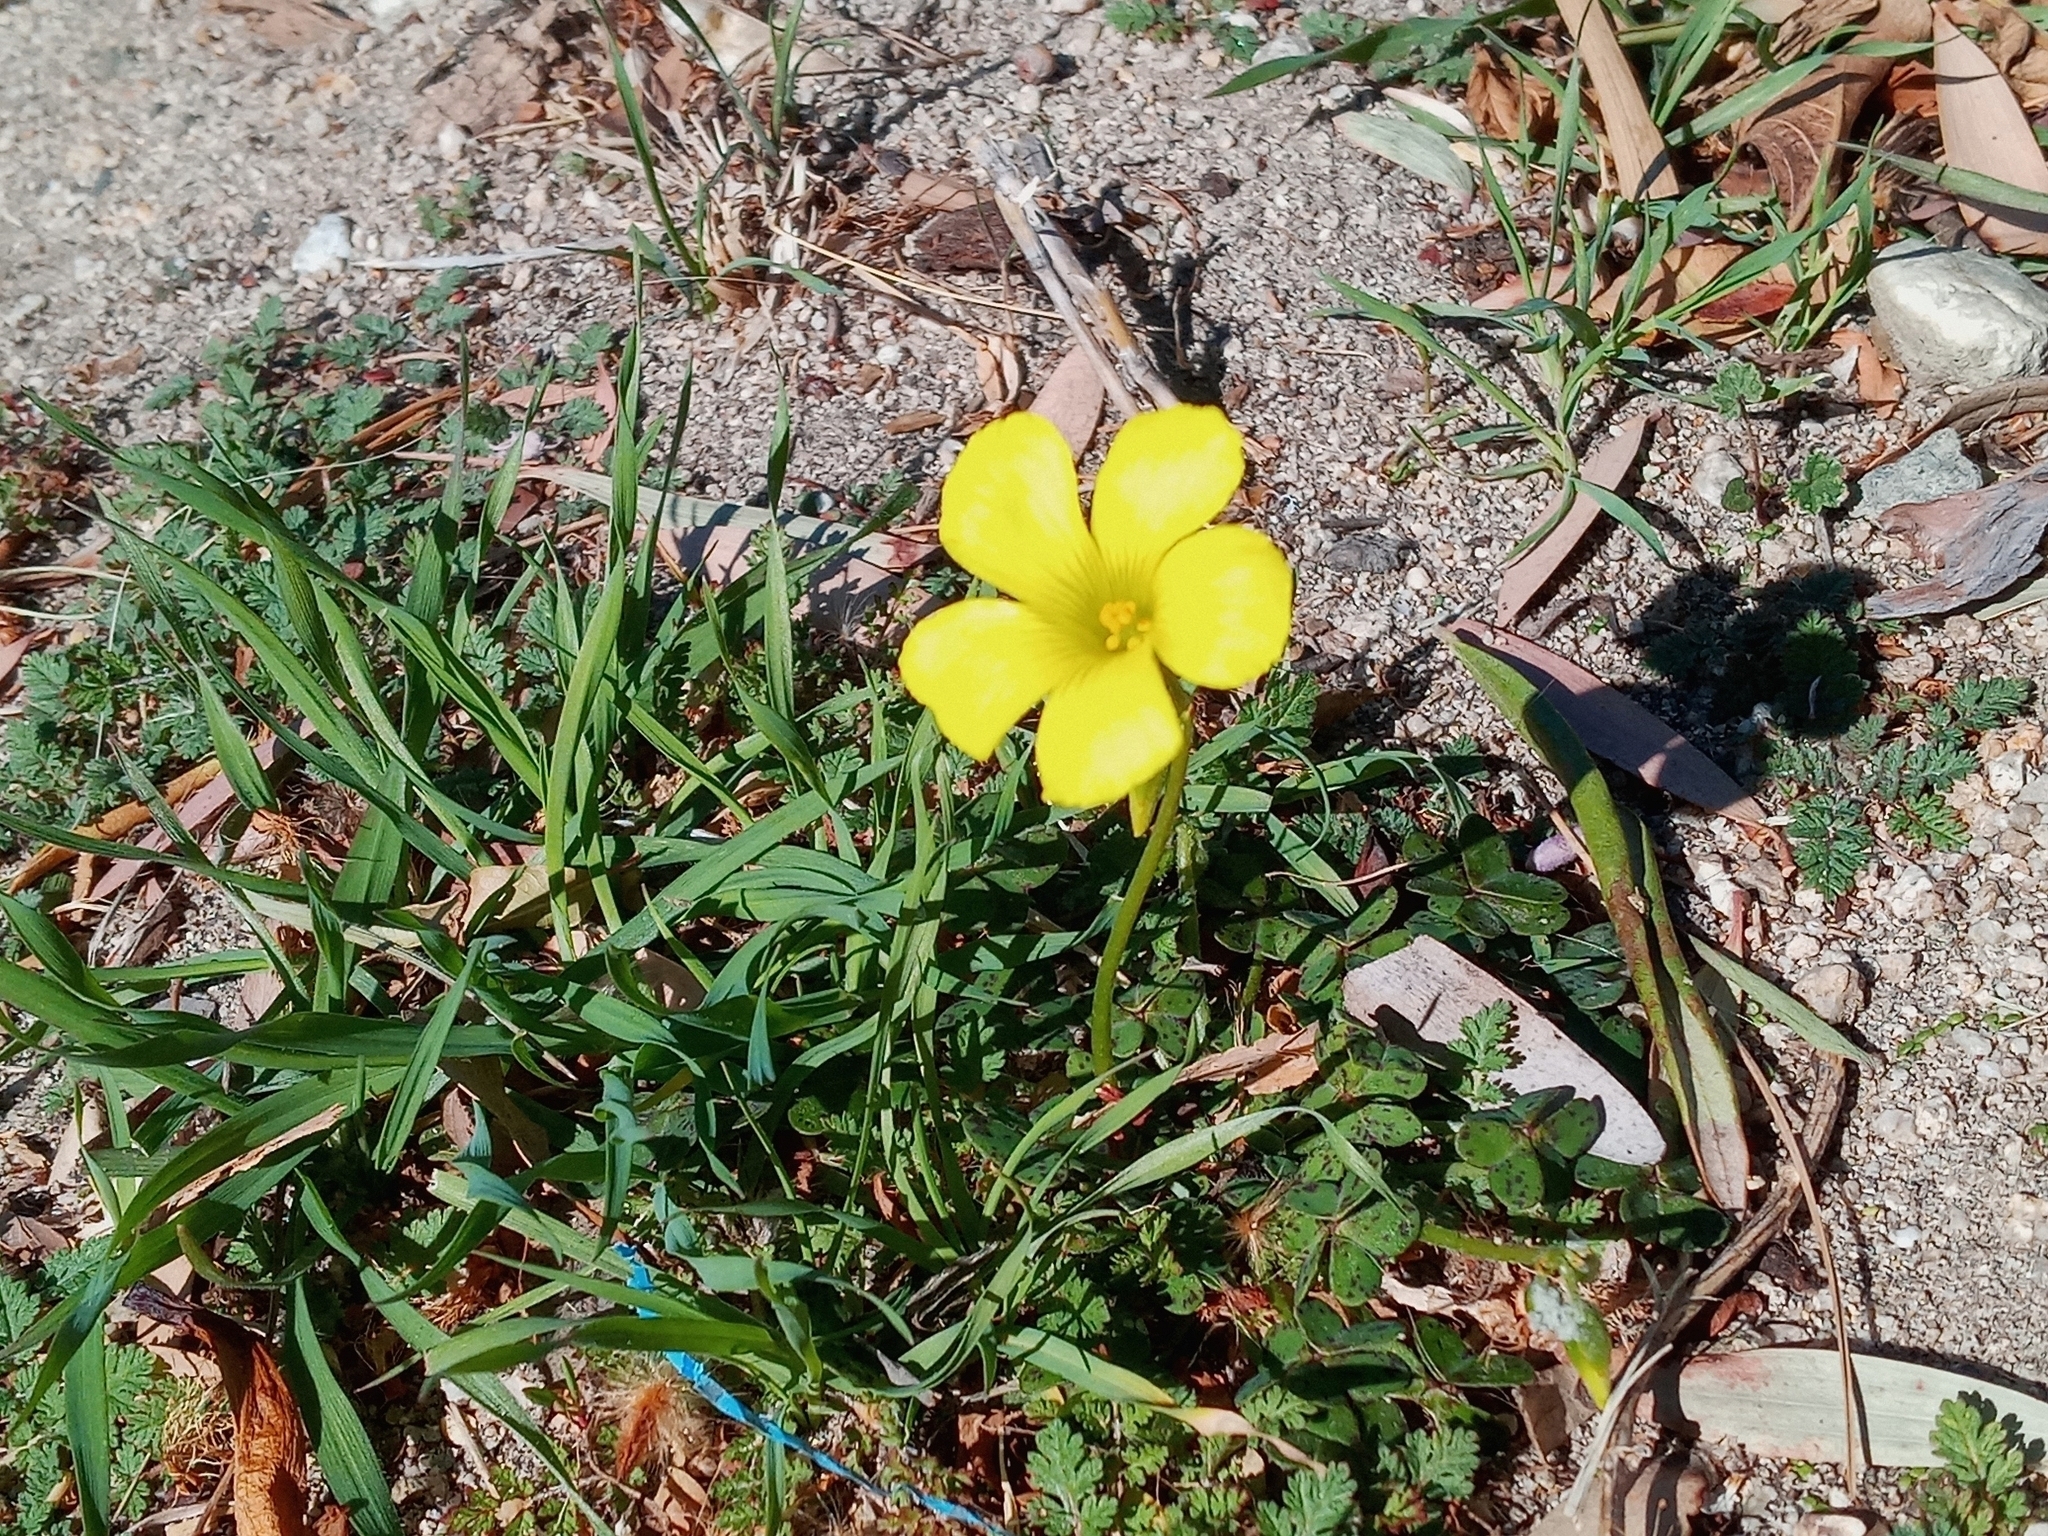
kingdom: Plantae
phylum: Tracheophyta
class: Magnoliopsida
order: Oxalidales
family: Oxalidaceae
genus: Oxalis
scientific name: Oxalis pes-caprae
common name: Bermuda-buttercup
